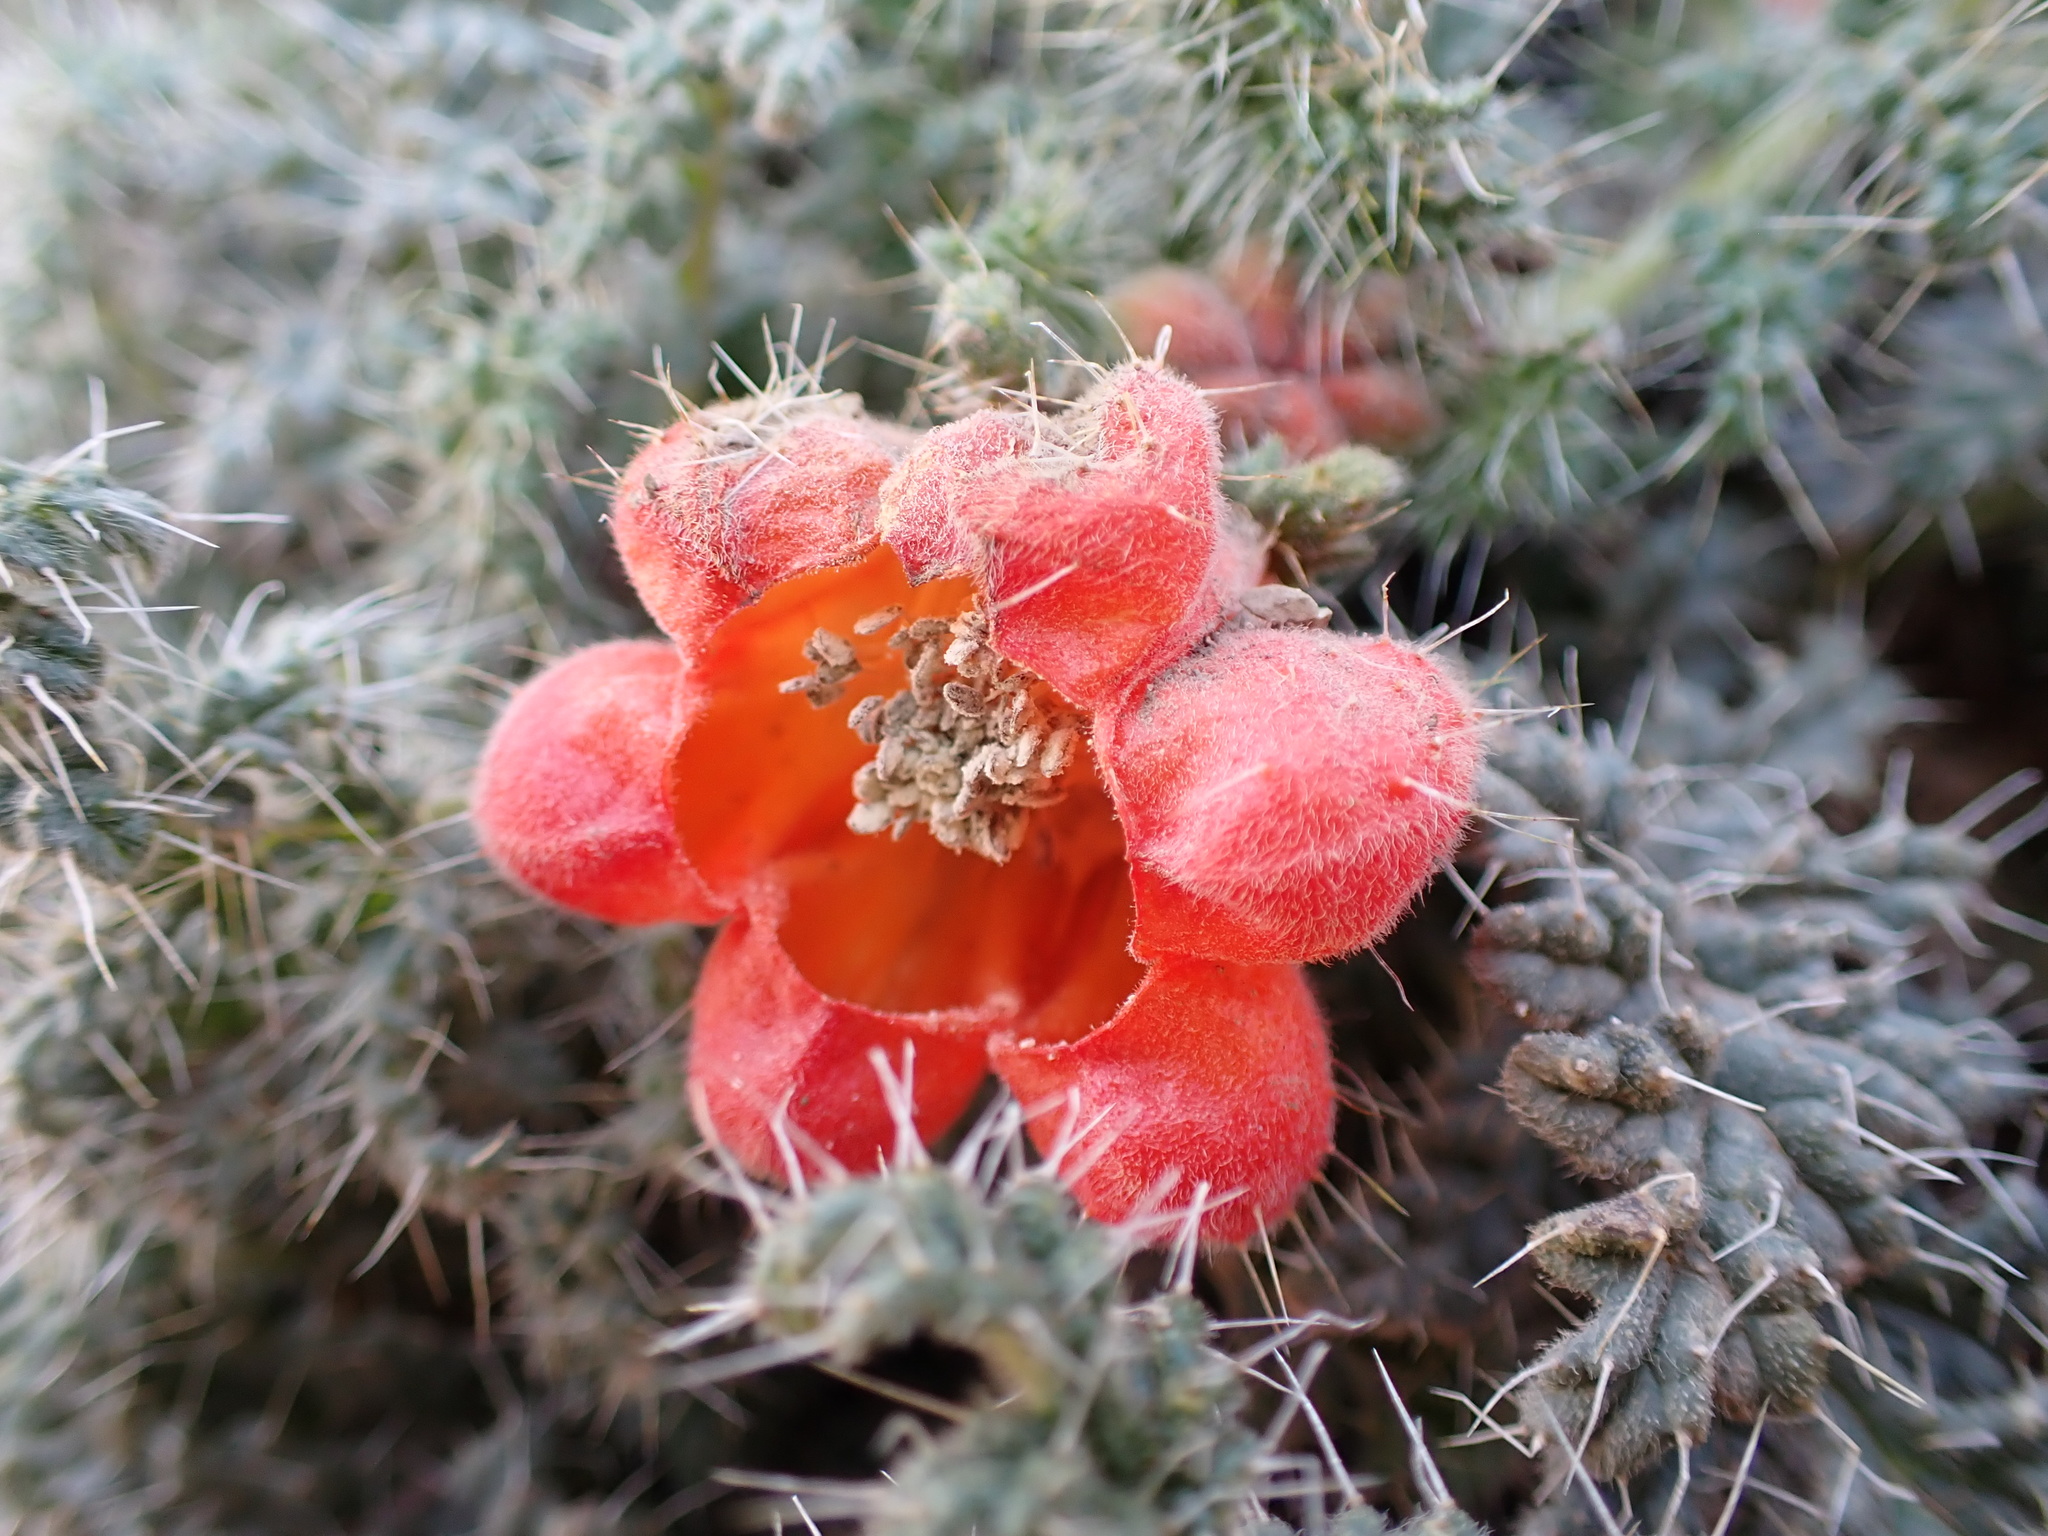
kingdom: Plantae
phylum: Tracheophyta
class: Magnoliopsida
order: Cornales
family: Loasaceae
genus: Caiophora
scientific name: Caiophora rosulata
